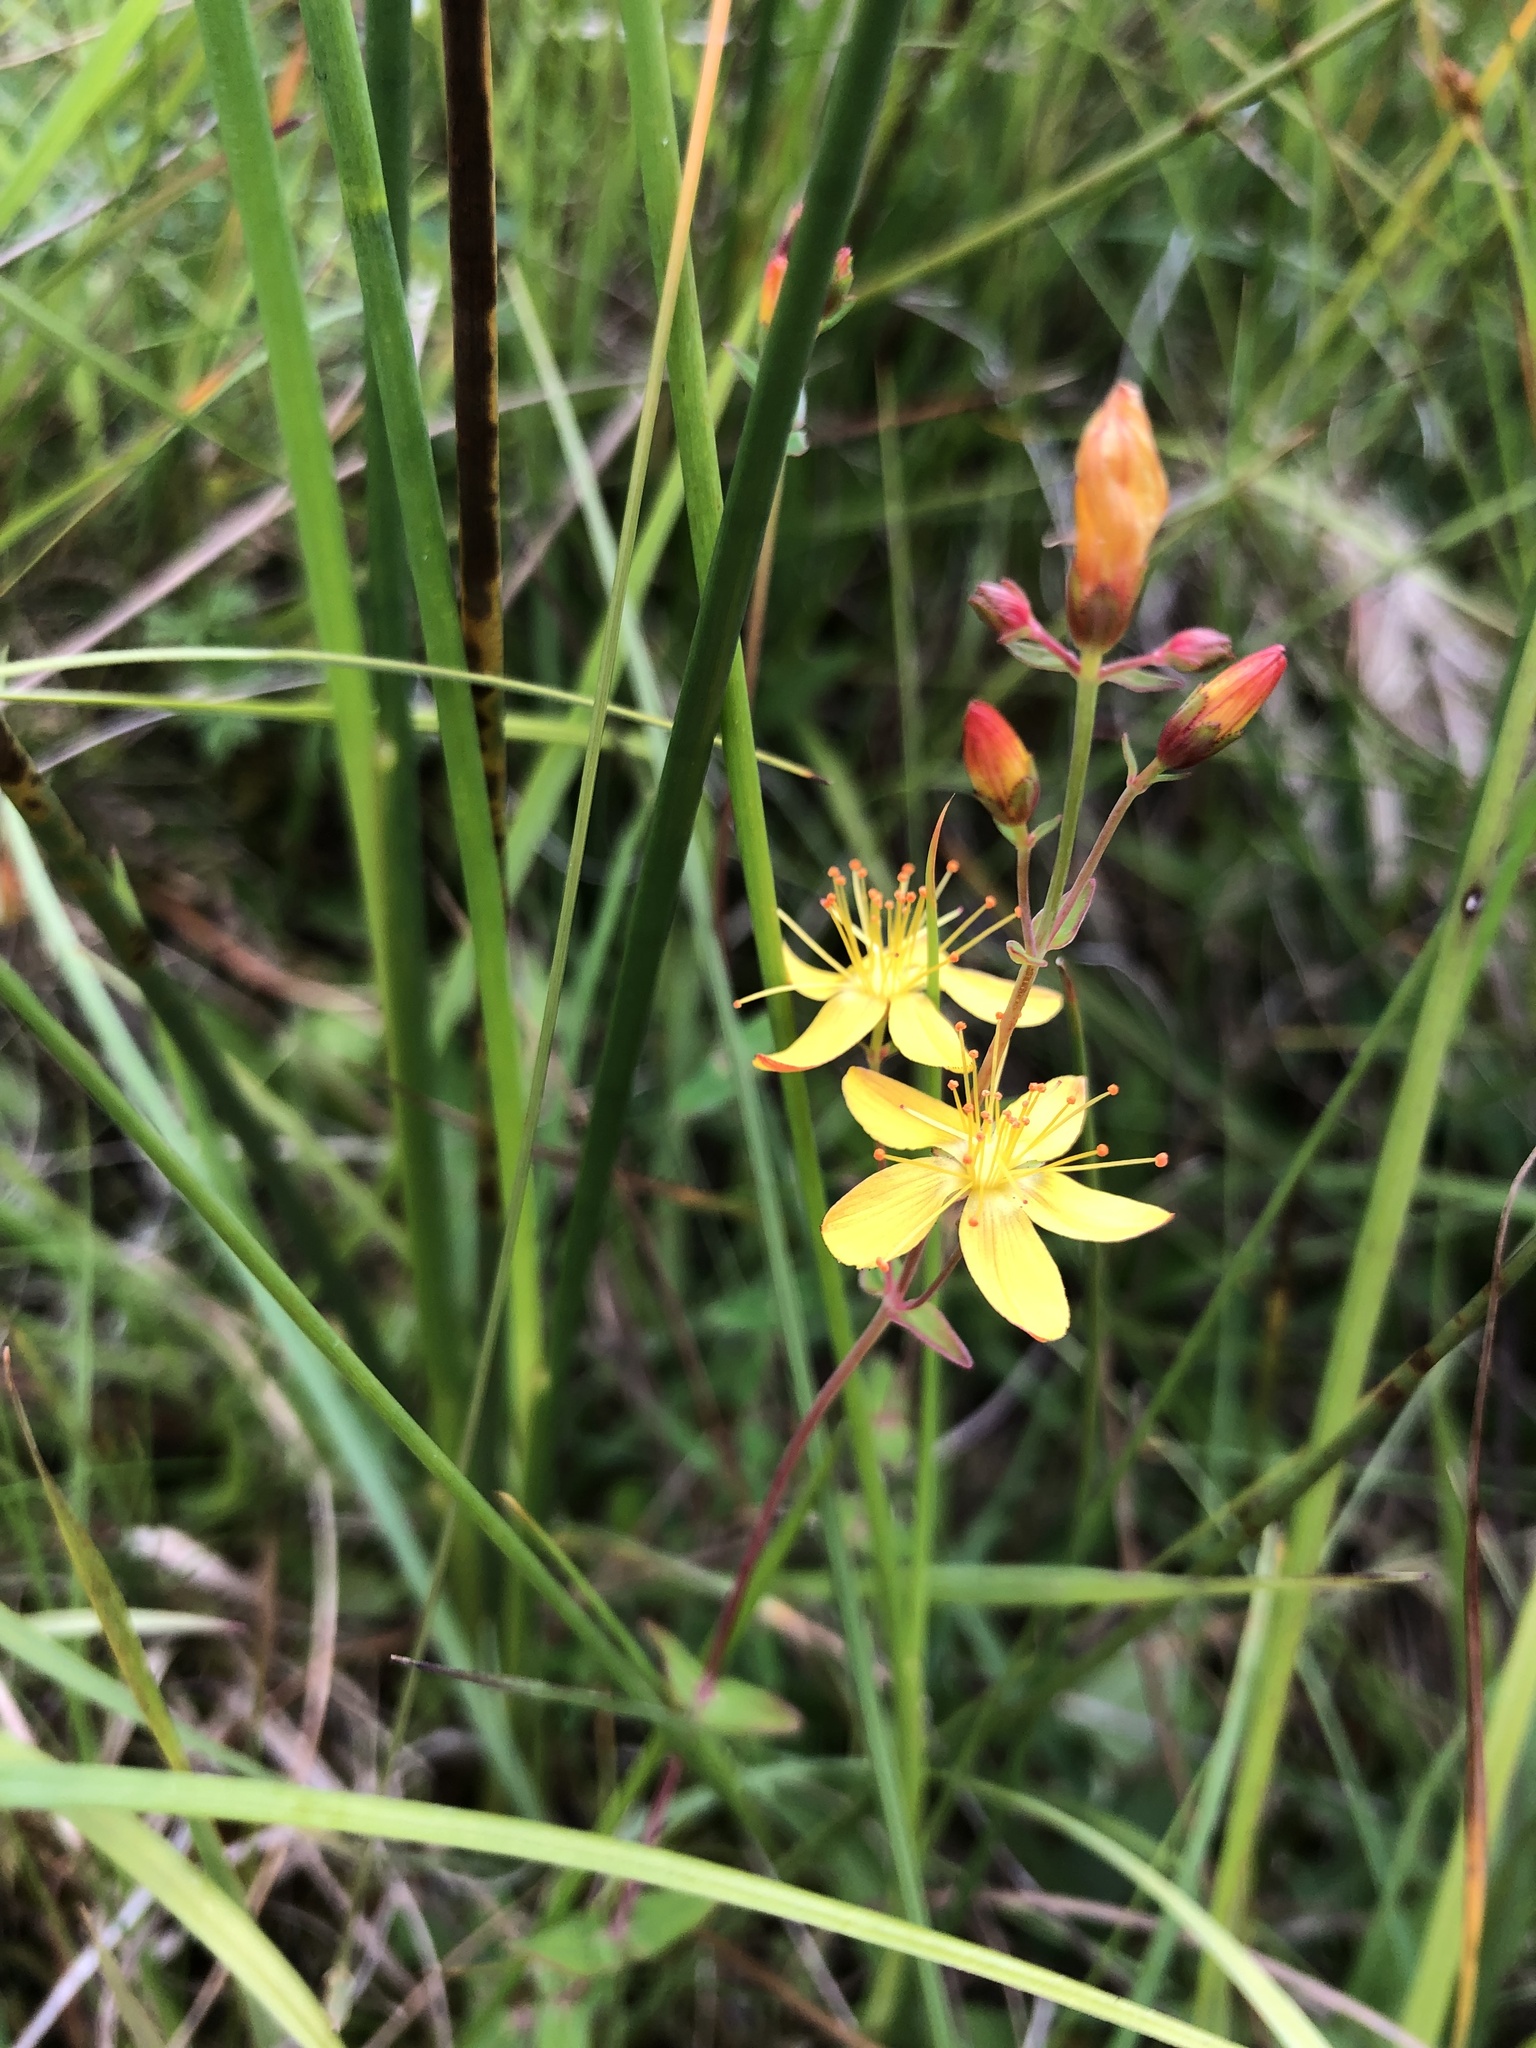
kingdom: Plantae
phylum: Tracheophyta
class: Magnoliopsida
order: Malpighiales
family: Hypericaceae
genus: Hypericum
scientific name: Hypericum pulchrum
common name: Slender st. john's-wort
